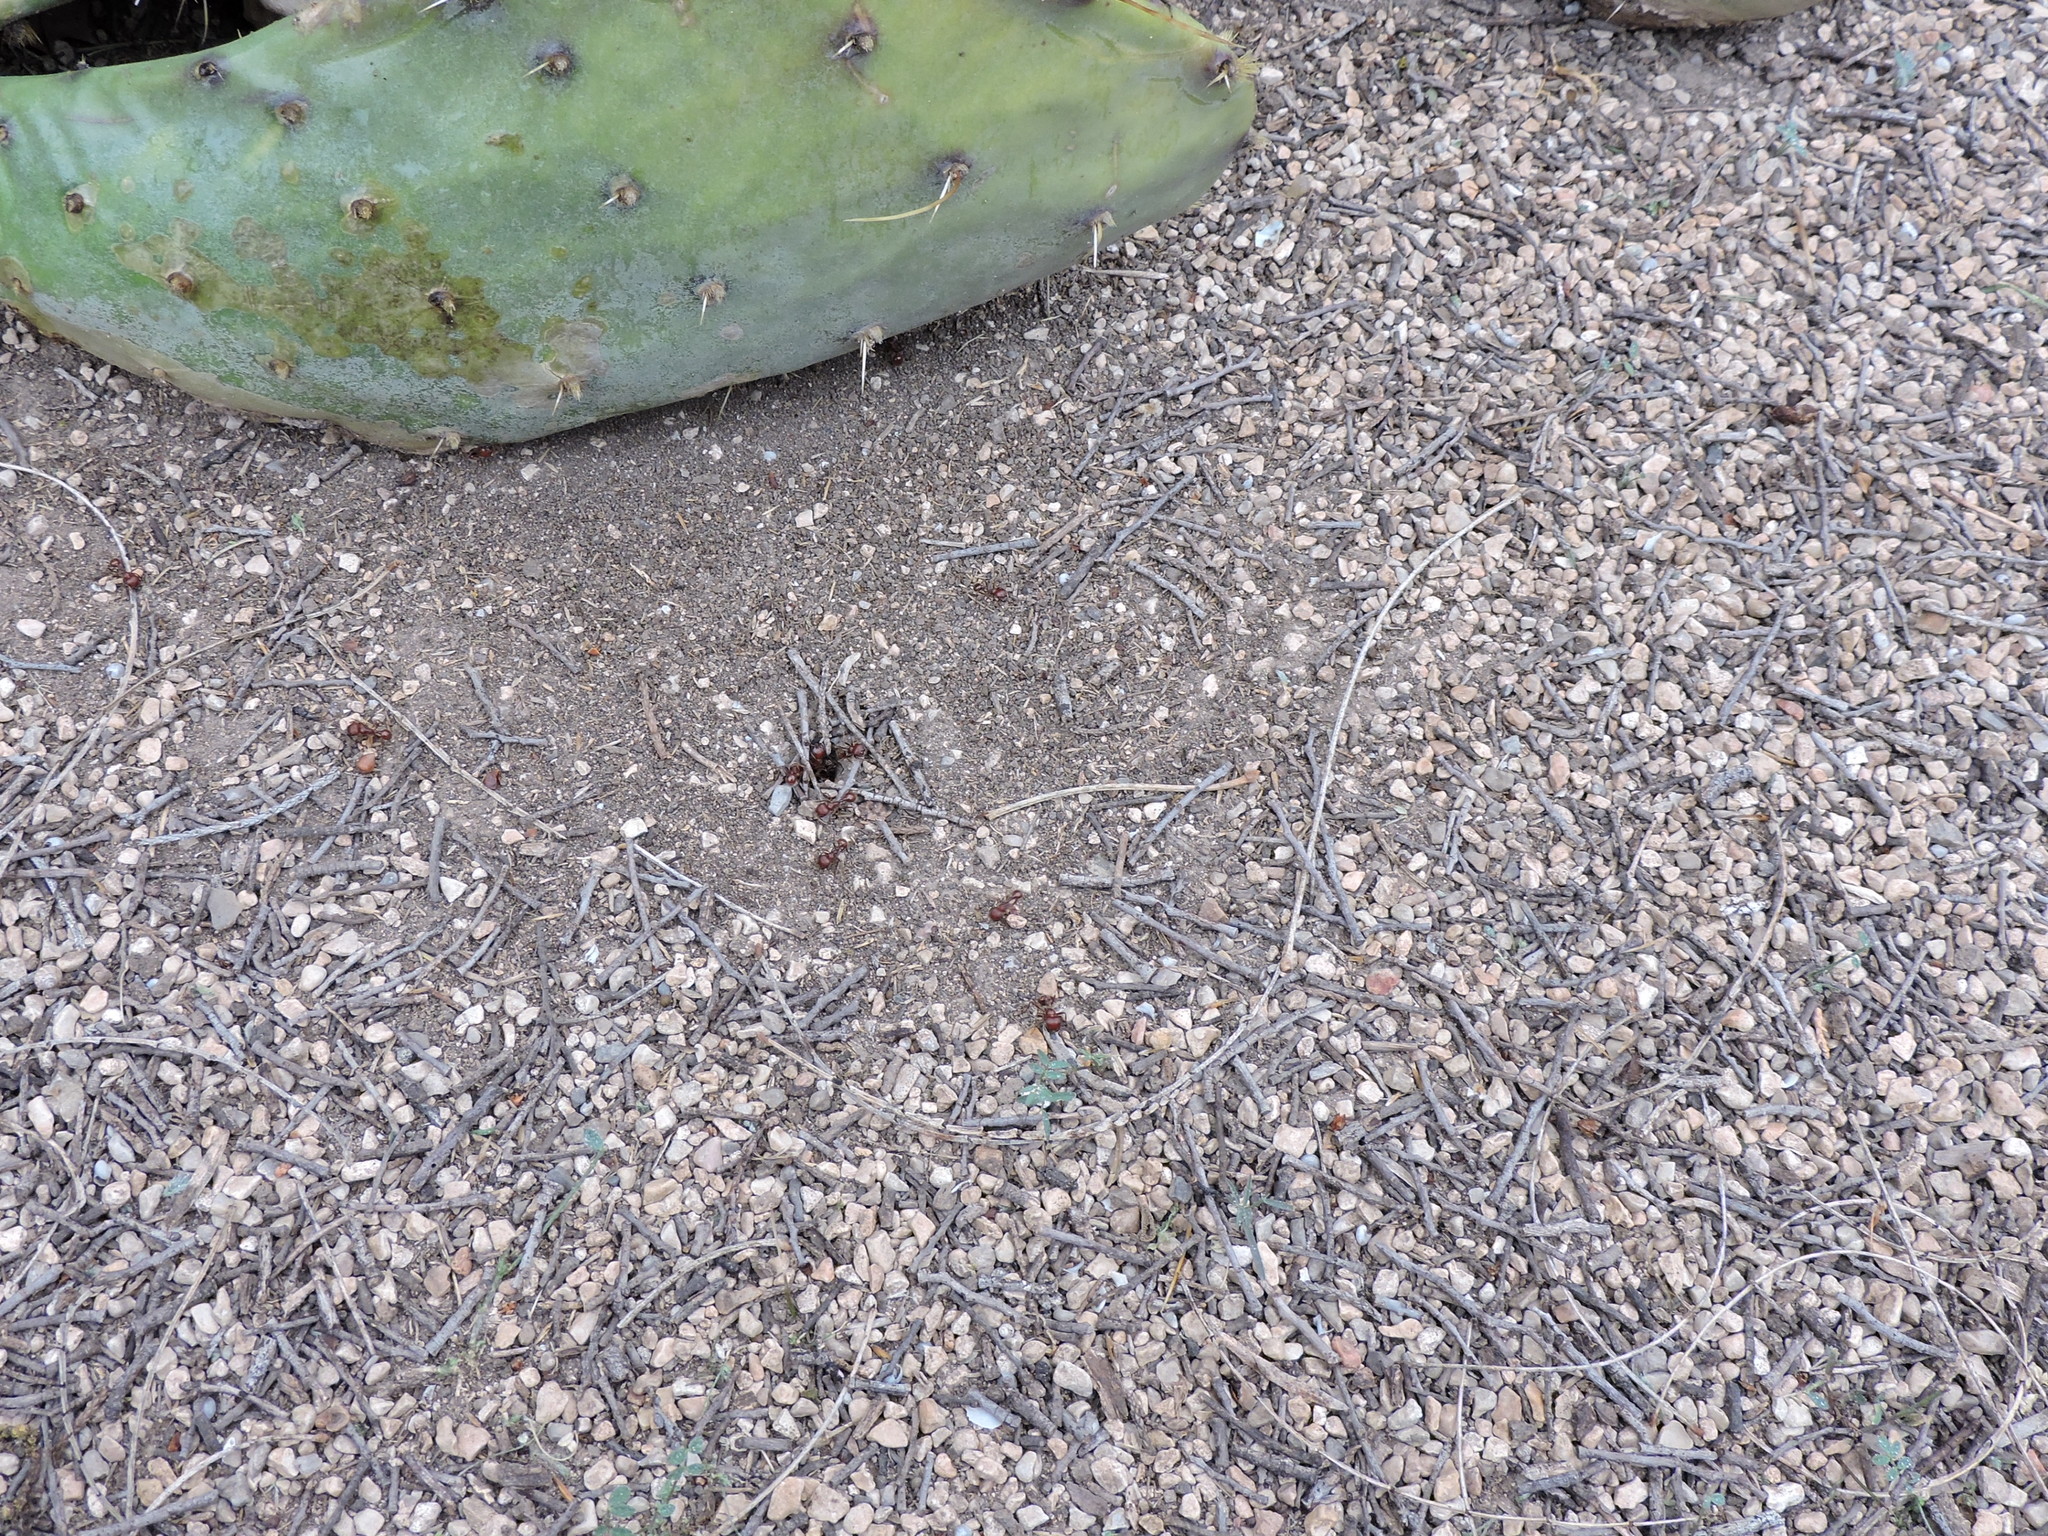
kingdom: Animalia
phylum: Arthropoda
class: Insecta
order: Hymenoptera
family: Formicidae
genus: Pogonomyrmex
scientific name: Pogonomyrmex barbatus
